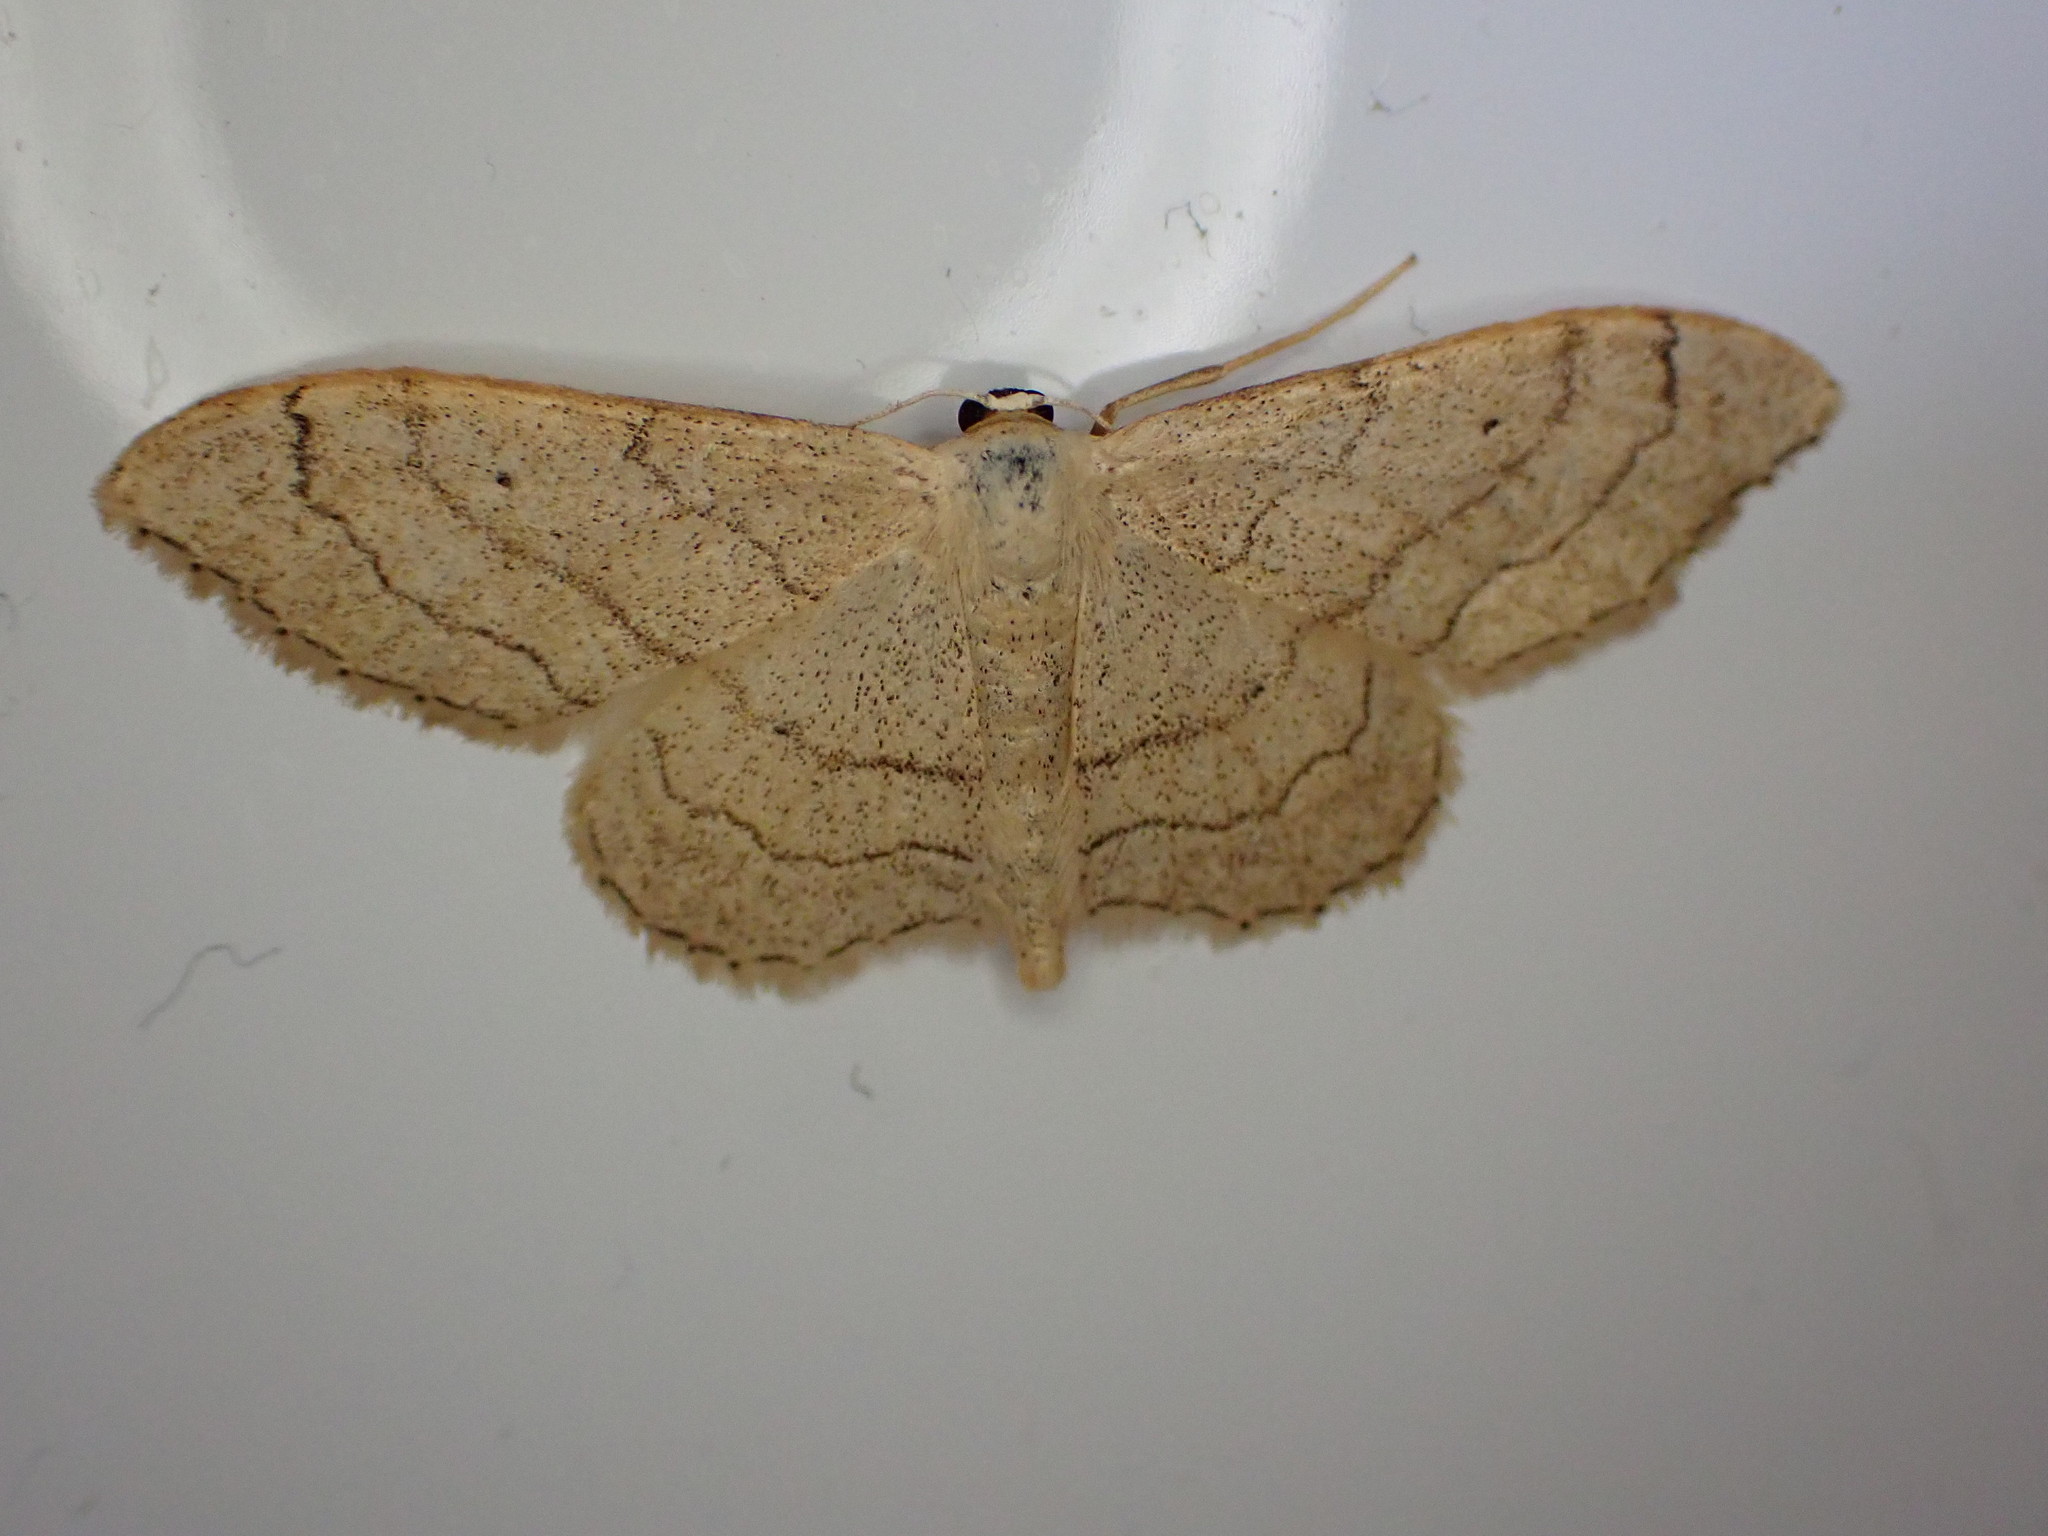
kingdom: Animalia
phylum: Arthropoda
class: Insecta
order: Lepidoptera
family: Geometridae
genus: Idaea
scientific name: Idaea aversata
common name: Riband wave
